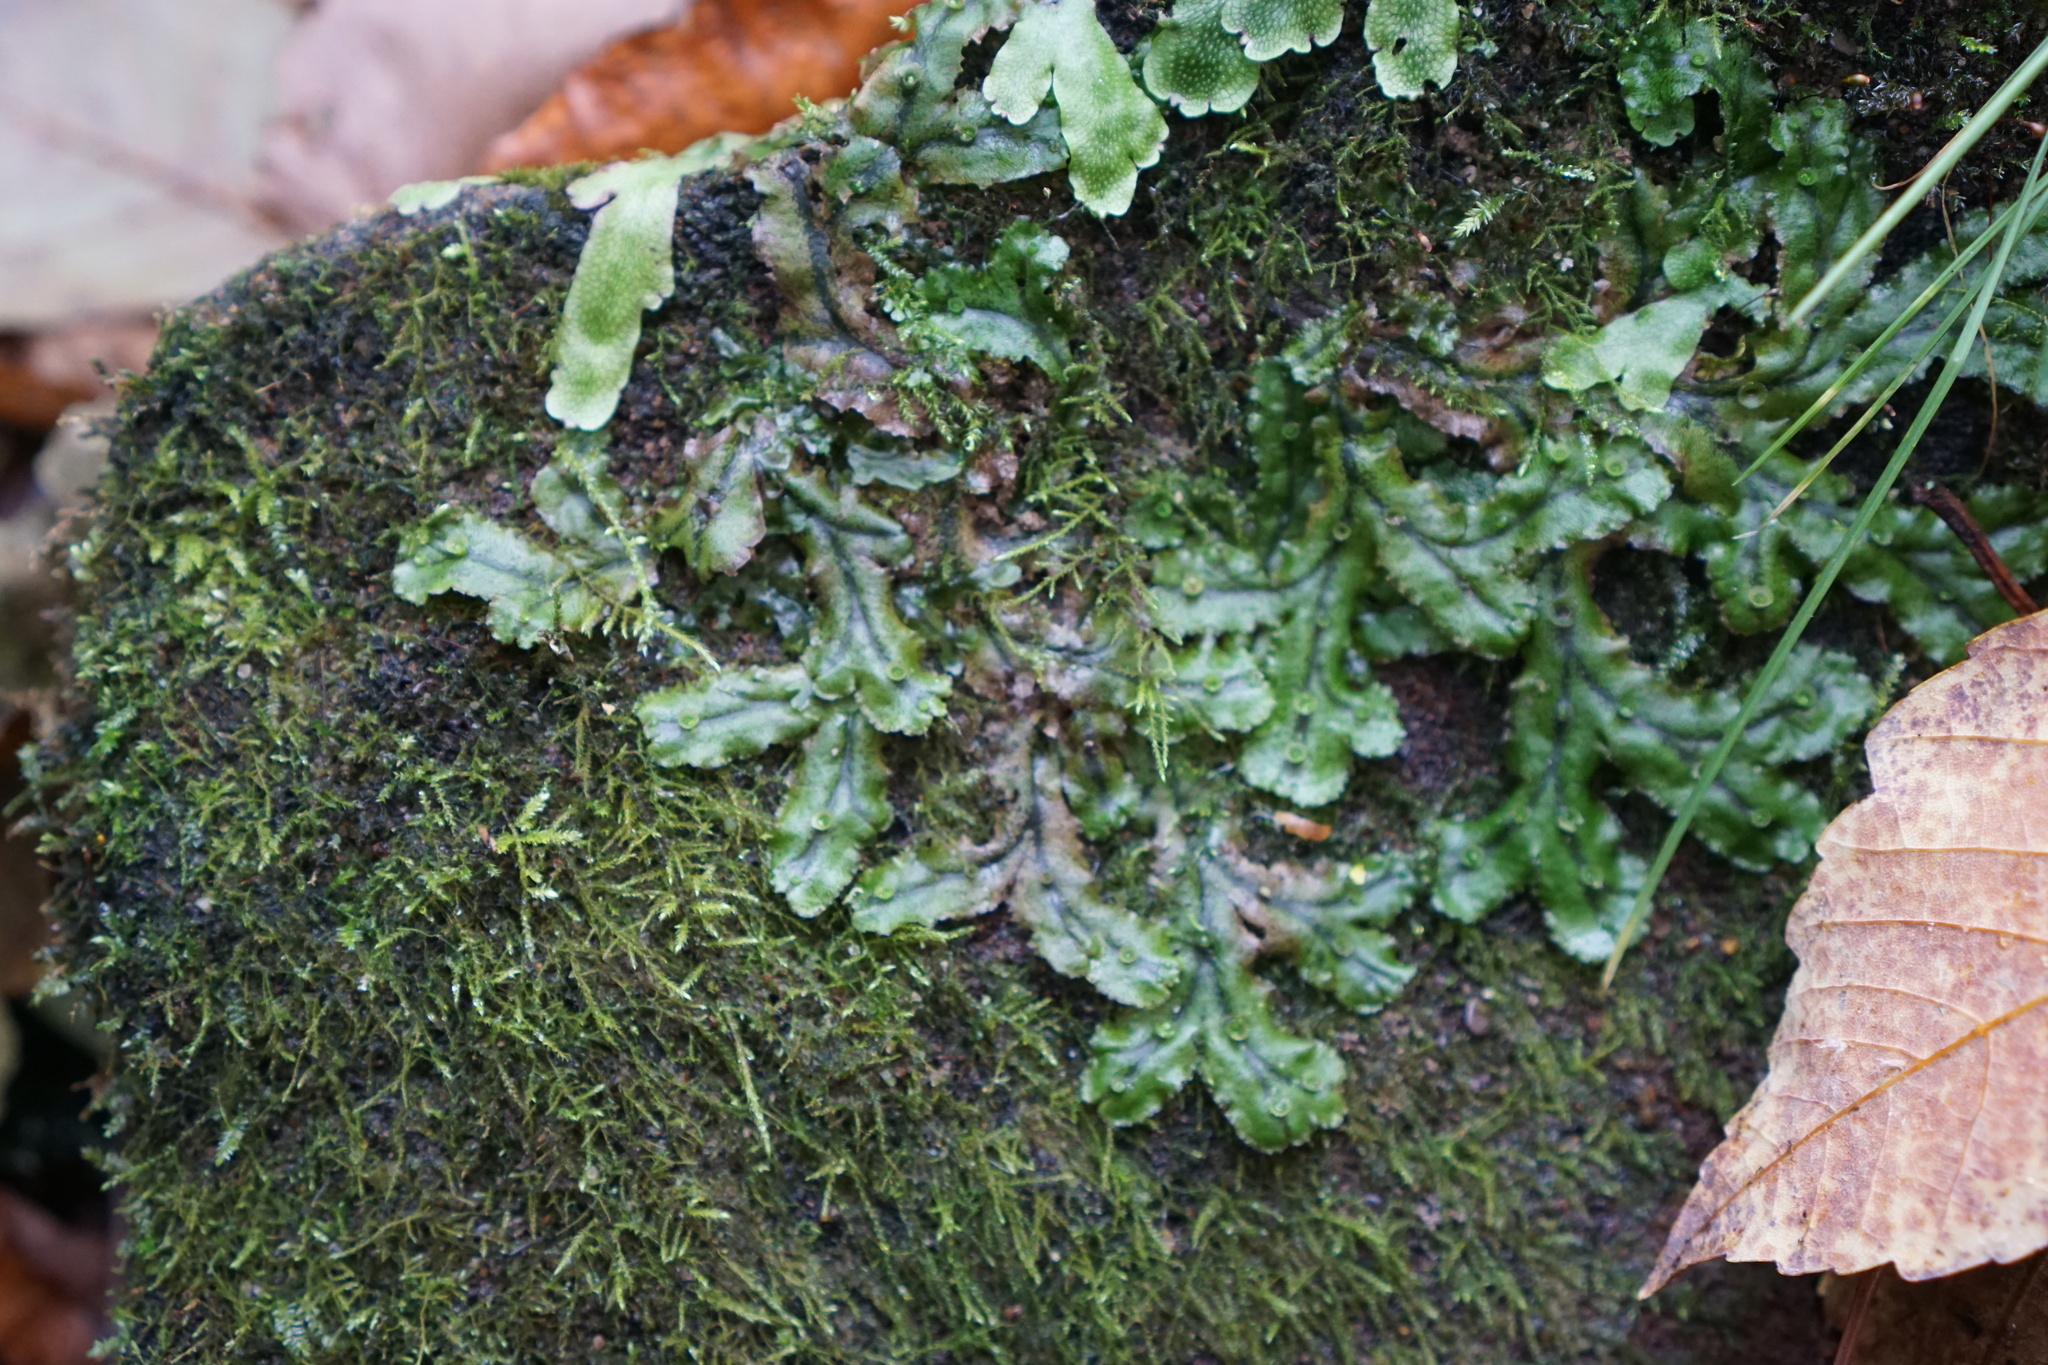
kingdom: Plantae
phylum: Marchantiophyta
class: Marchantiopsida
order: Marchantiales
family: Marchantiaceae
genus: Marchantia
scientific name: Marchantia polymorpha
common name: Common liverwort
